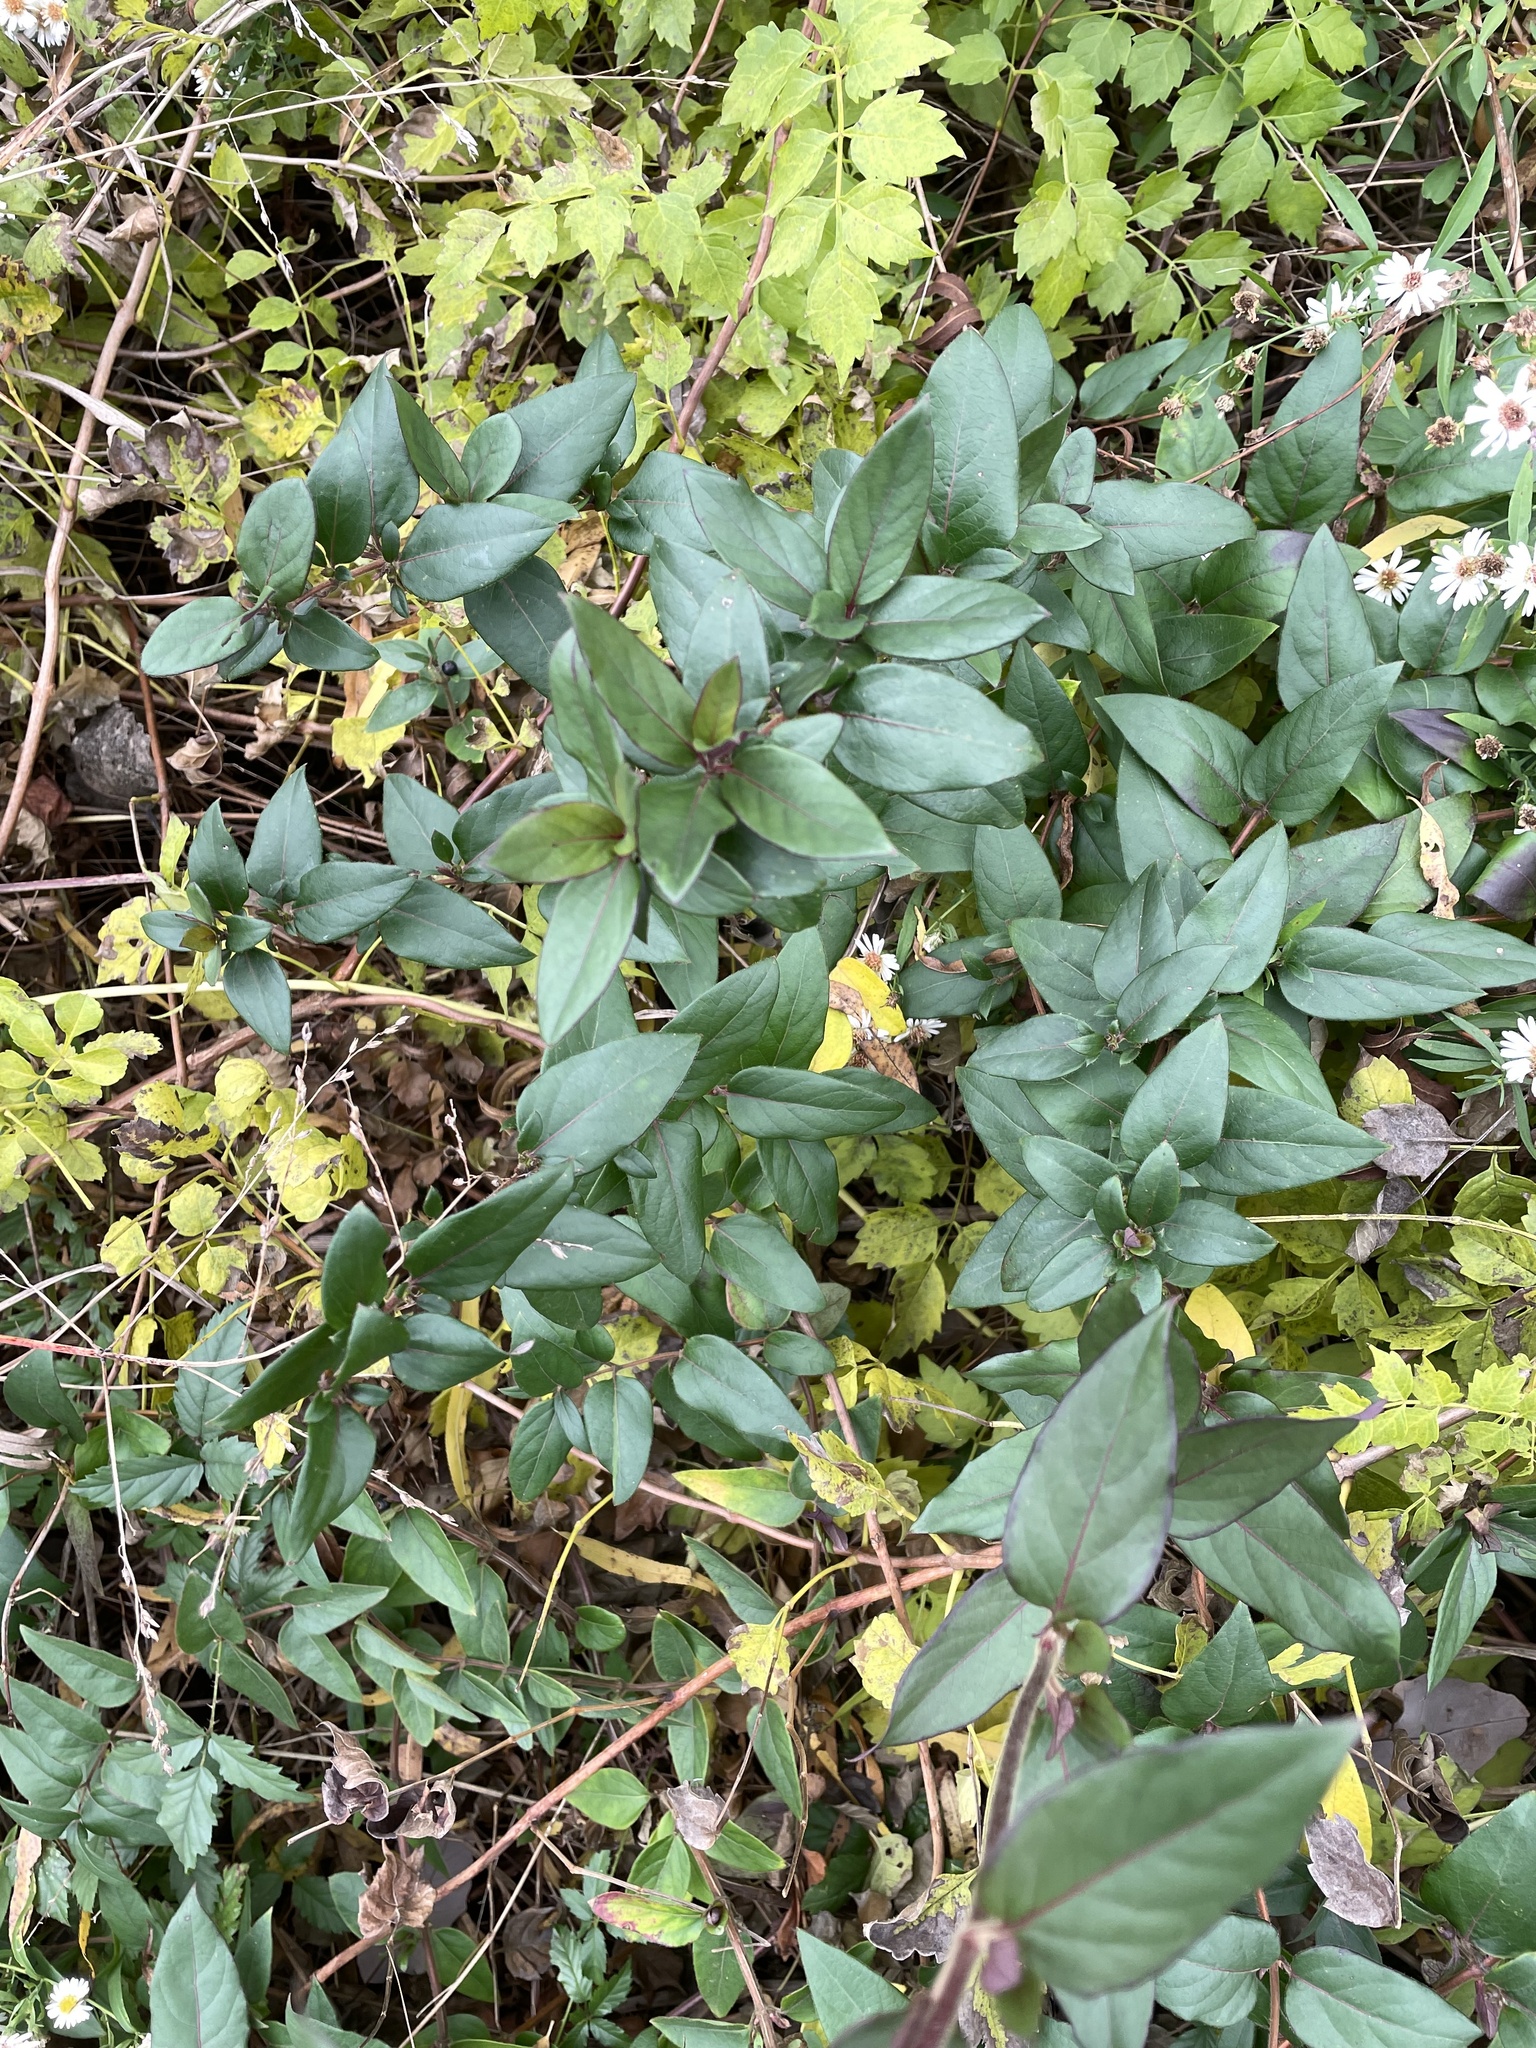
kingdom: Plantae
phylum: Tracheophyta
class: Magnoliopsida
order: Dipsacales
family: Caprifoliaceae
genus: Lonicera
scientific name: Lonicera japonica
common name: Japanese honeysuckle
